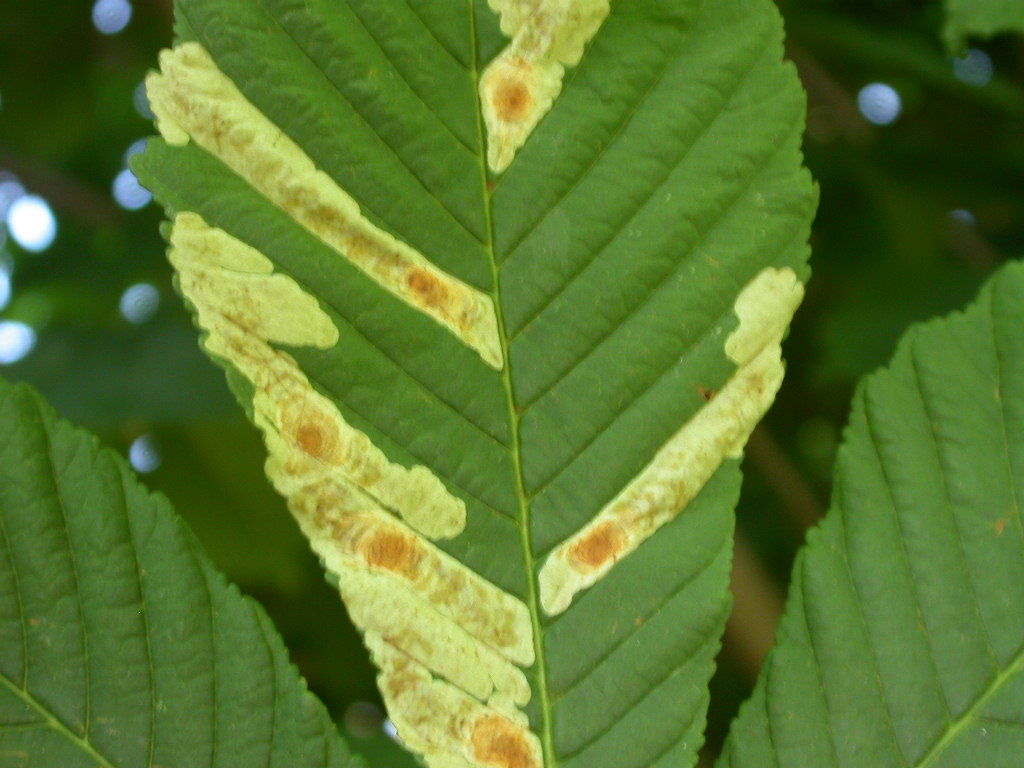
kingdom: Animalia
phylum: Arthropoda
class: Insecta
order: Lepidoptera
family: Gracillariidae
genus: Cameraria
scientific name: Cameraria ohridella
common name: Horse-chestnut leaf-miner
